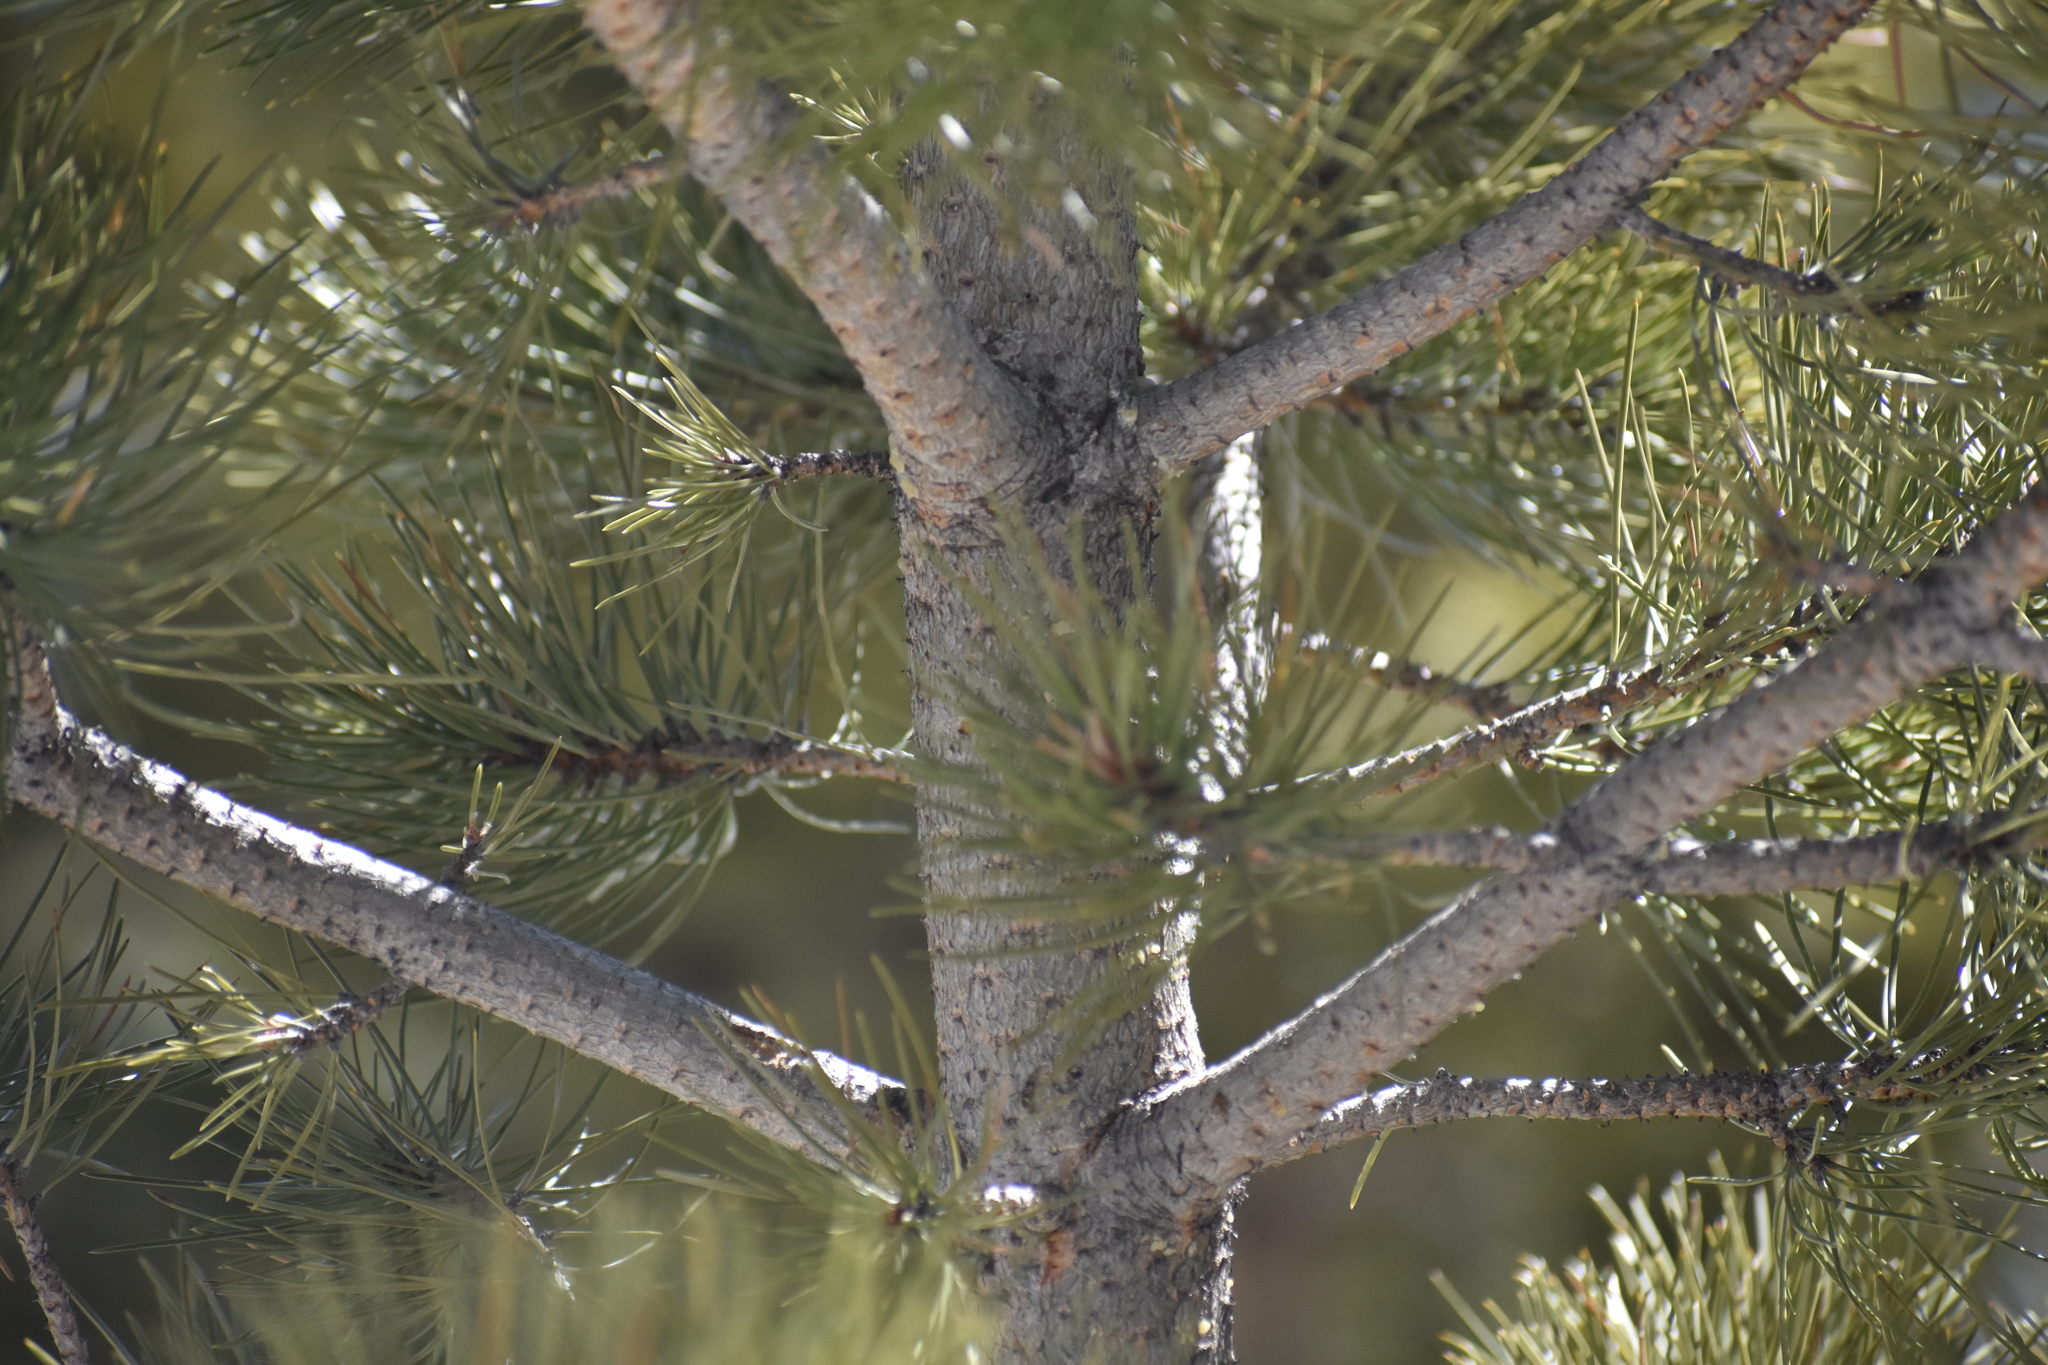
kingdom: Plantae
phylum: Tracheophyta
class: Pinopsida
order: Pinales
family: Pinaceae
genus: Pinus
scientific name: Pinus ponderosa
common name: Western yellow-pine
